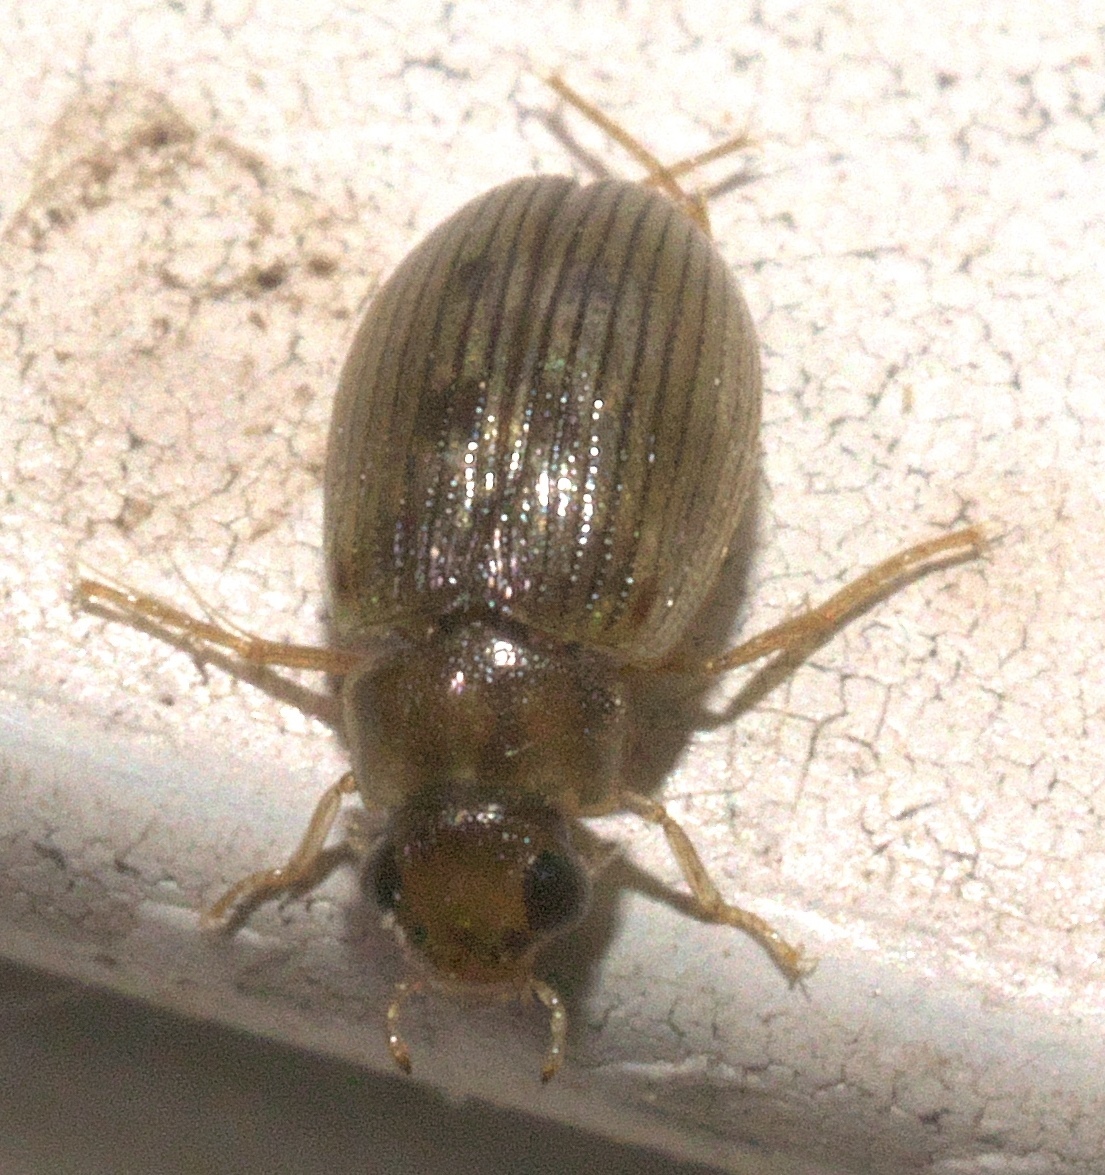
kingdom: Animalia
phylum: Arthropoda
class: Insecta
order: Coleoptera
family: Hydrophilidae
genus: Berosus
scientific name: Berosus exiguus
